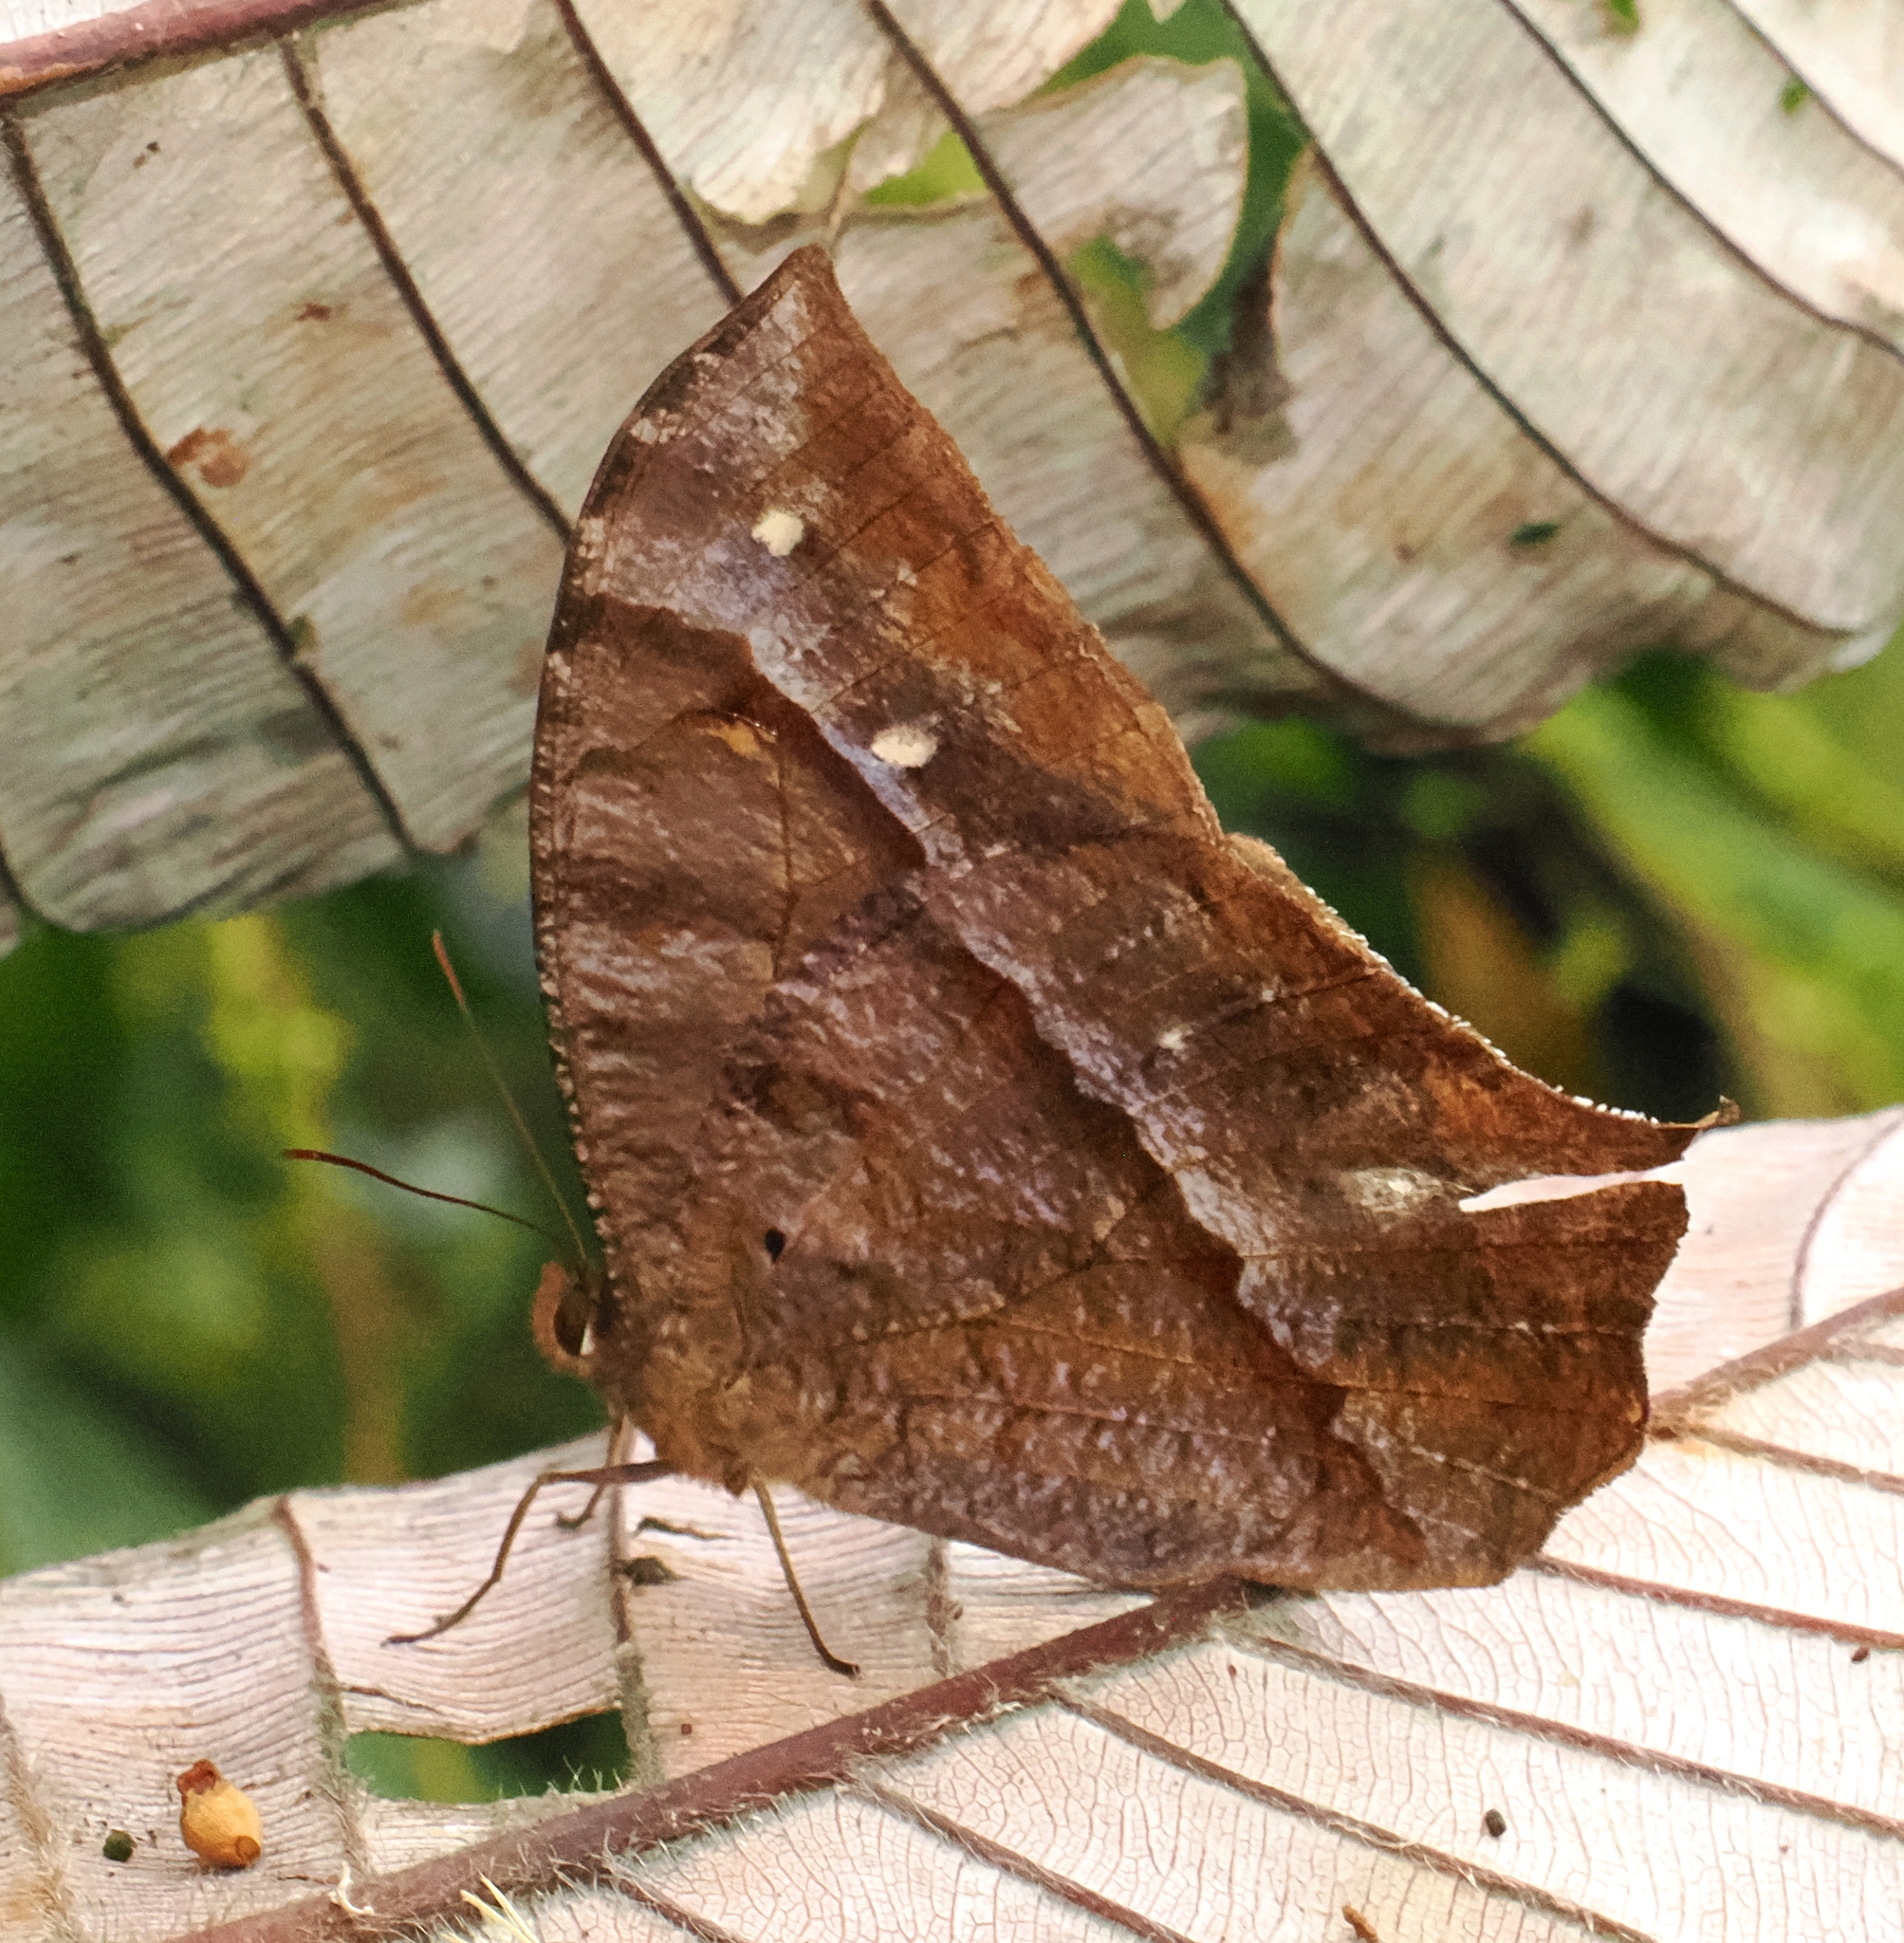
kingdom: Animalia
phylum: Arthropoda
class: Insecta
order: Lepidoptera
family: Nymphalidae
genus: Antirrhea
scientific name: Antirrhea geryon
